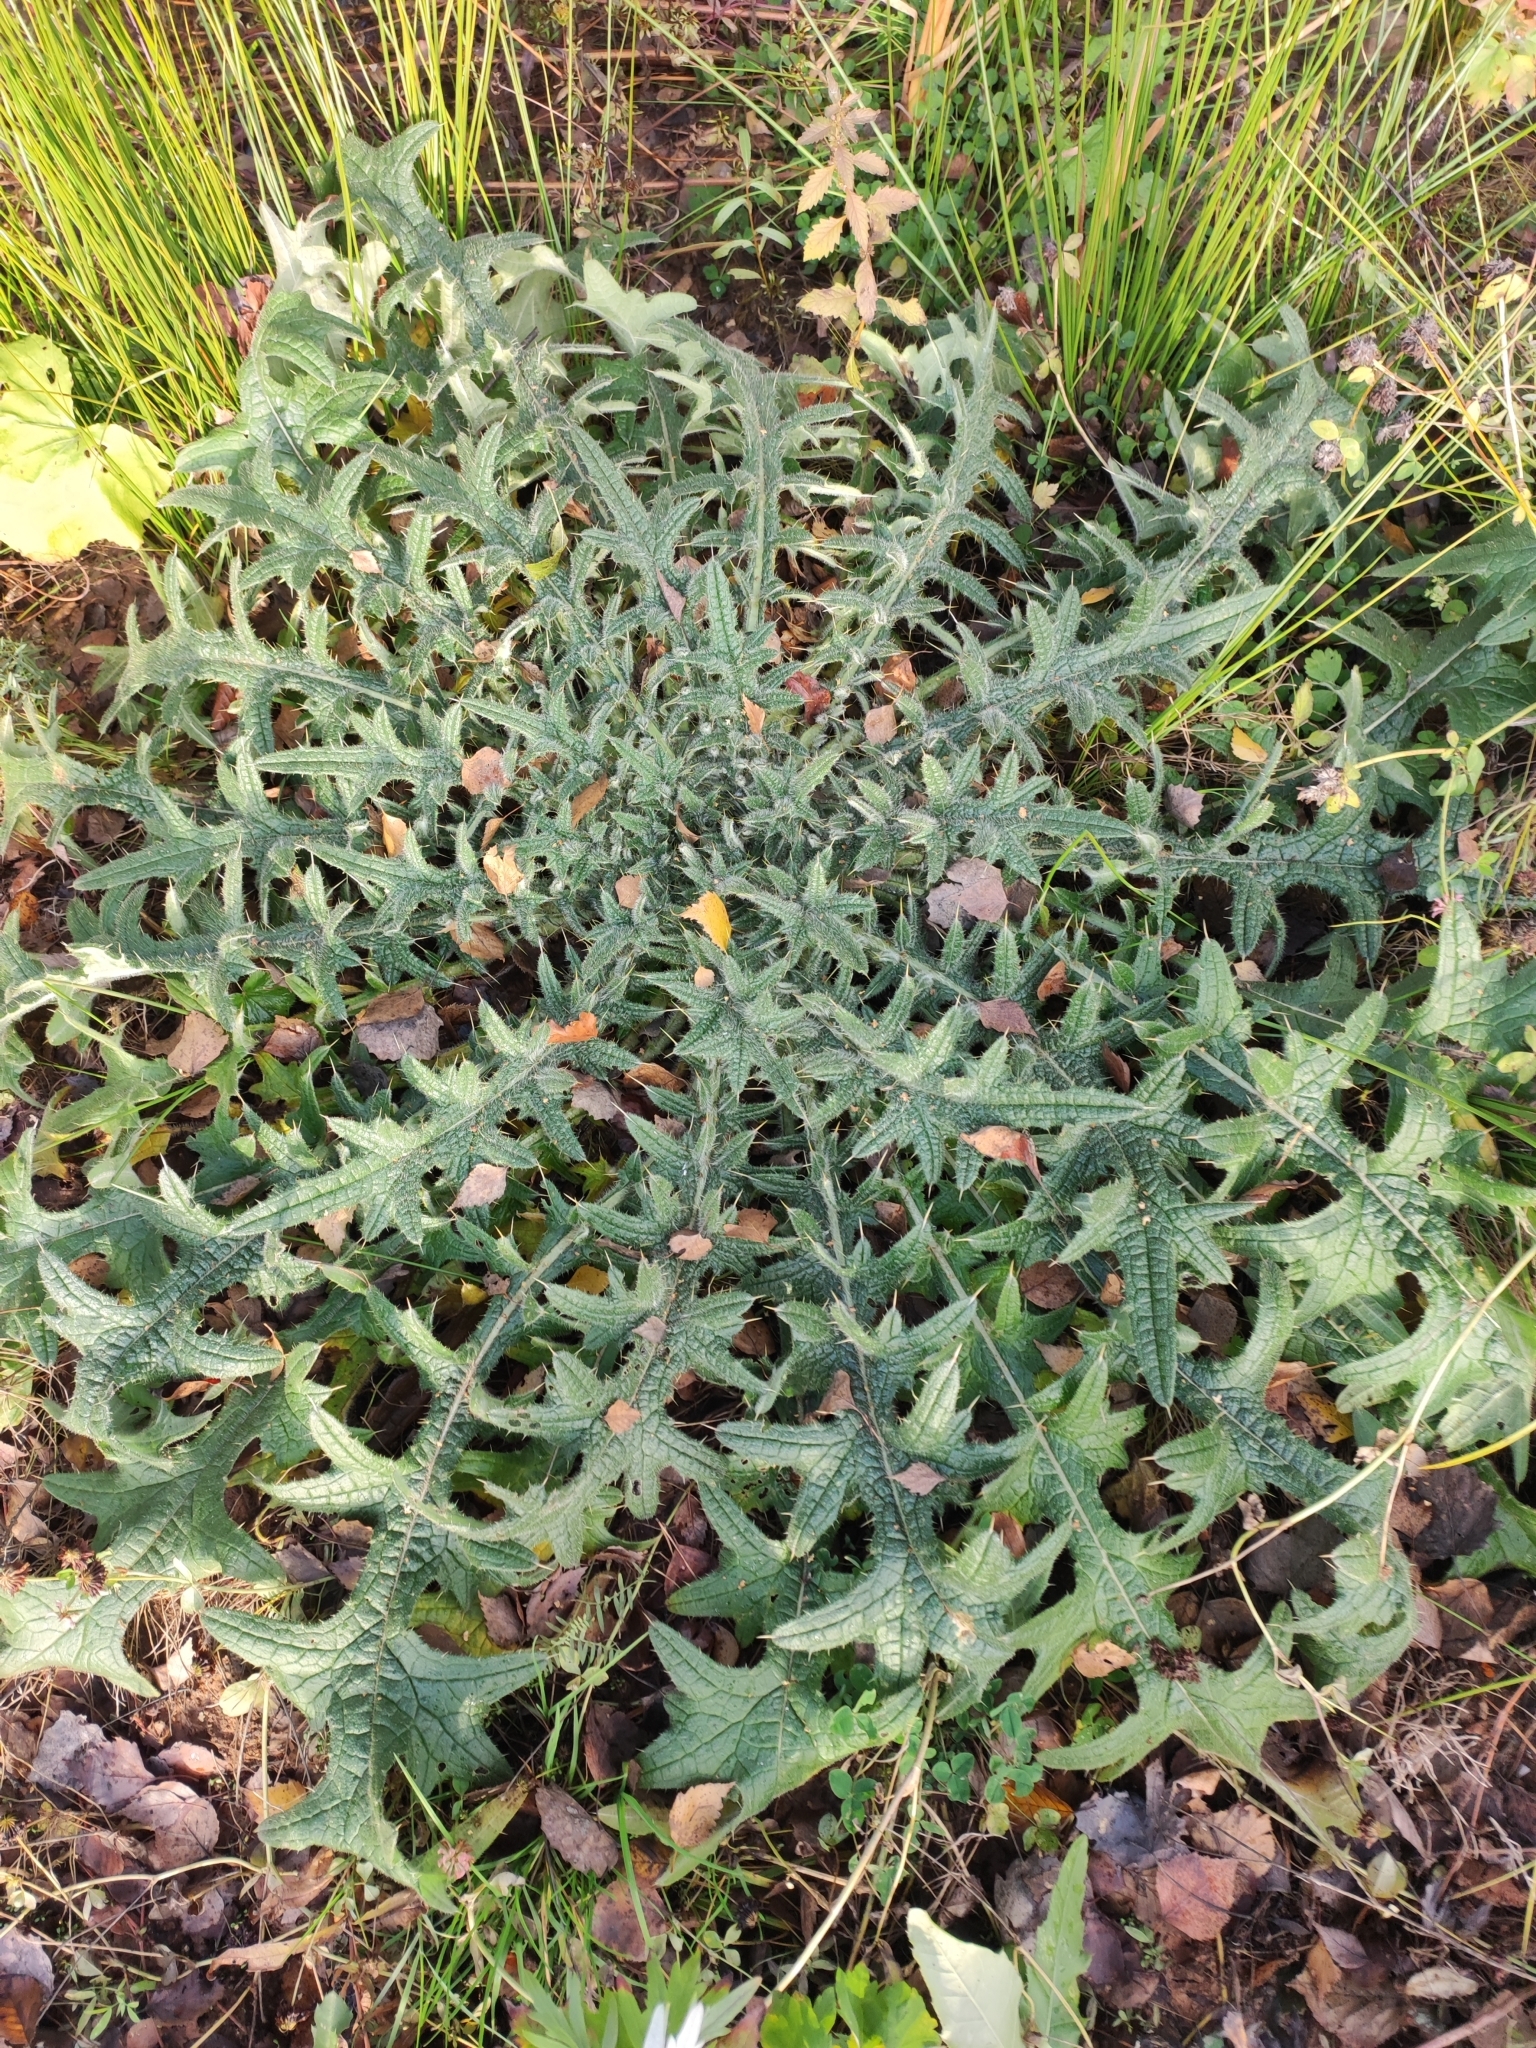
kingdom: Plantae
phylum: Tracheophyta
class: Magnoliopsida
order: Asterales
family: Asteraceae
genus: Cirsium
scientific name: Cirsium vulgare
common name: Bull thistle
